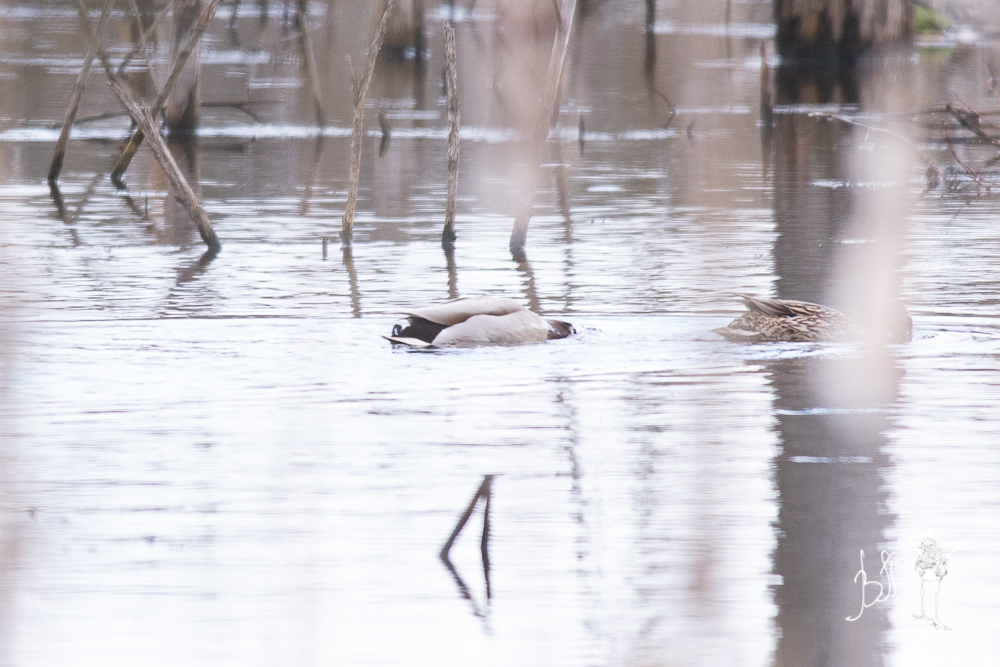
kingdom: Animalia
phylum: Chordata
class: Aves
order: Anseriformes
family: Anatidae
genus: Anas
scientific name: Anas platyrhynchos
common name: Mallard
